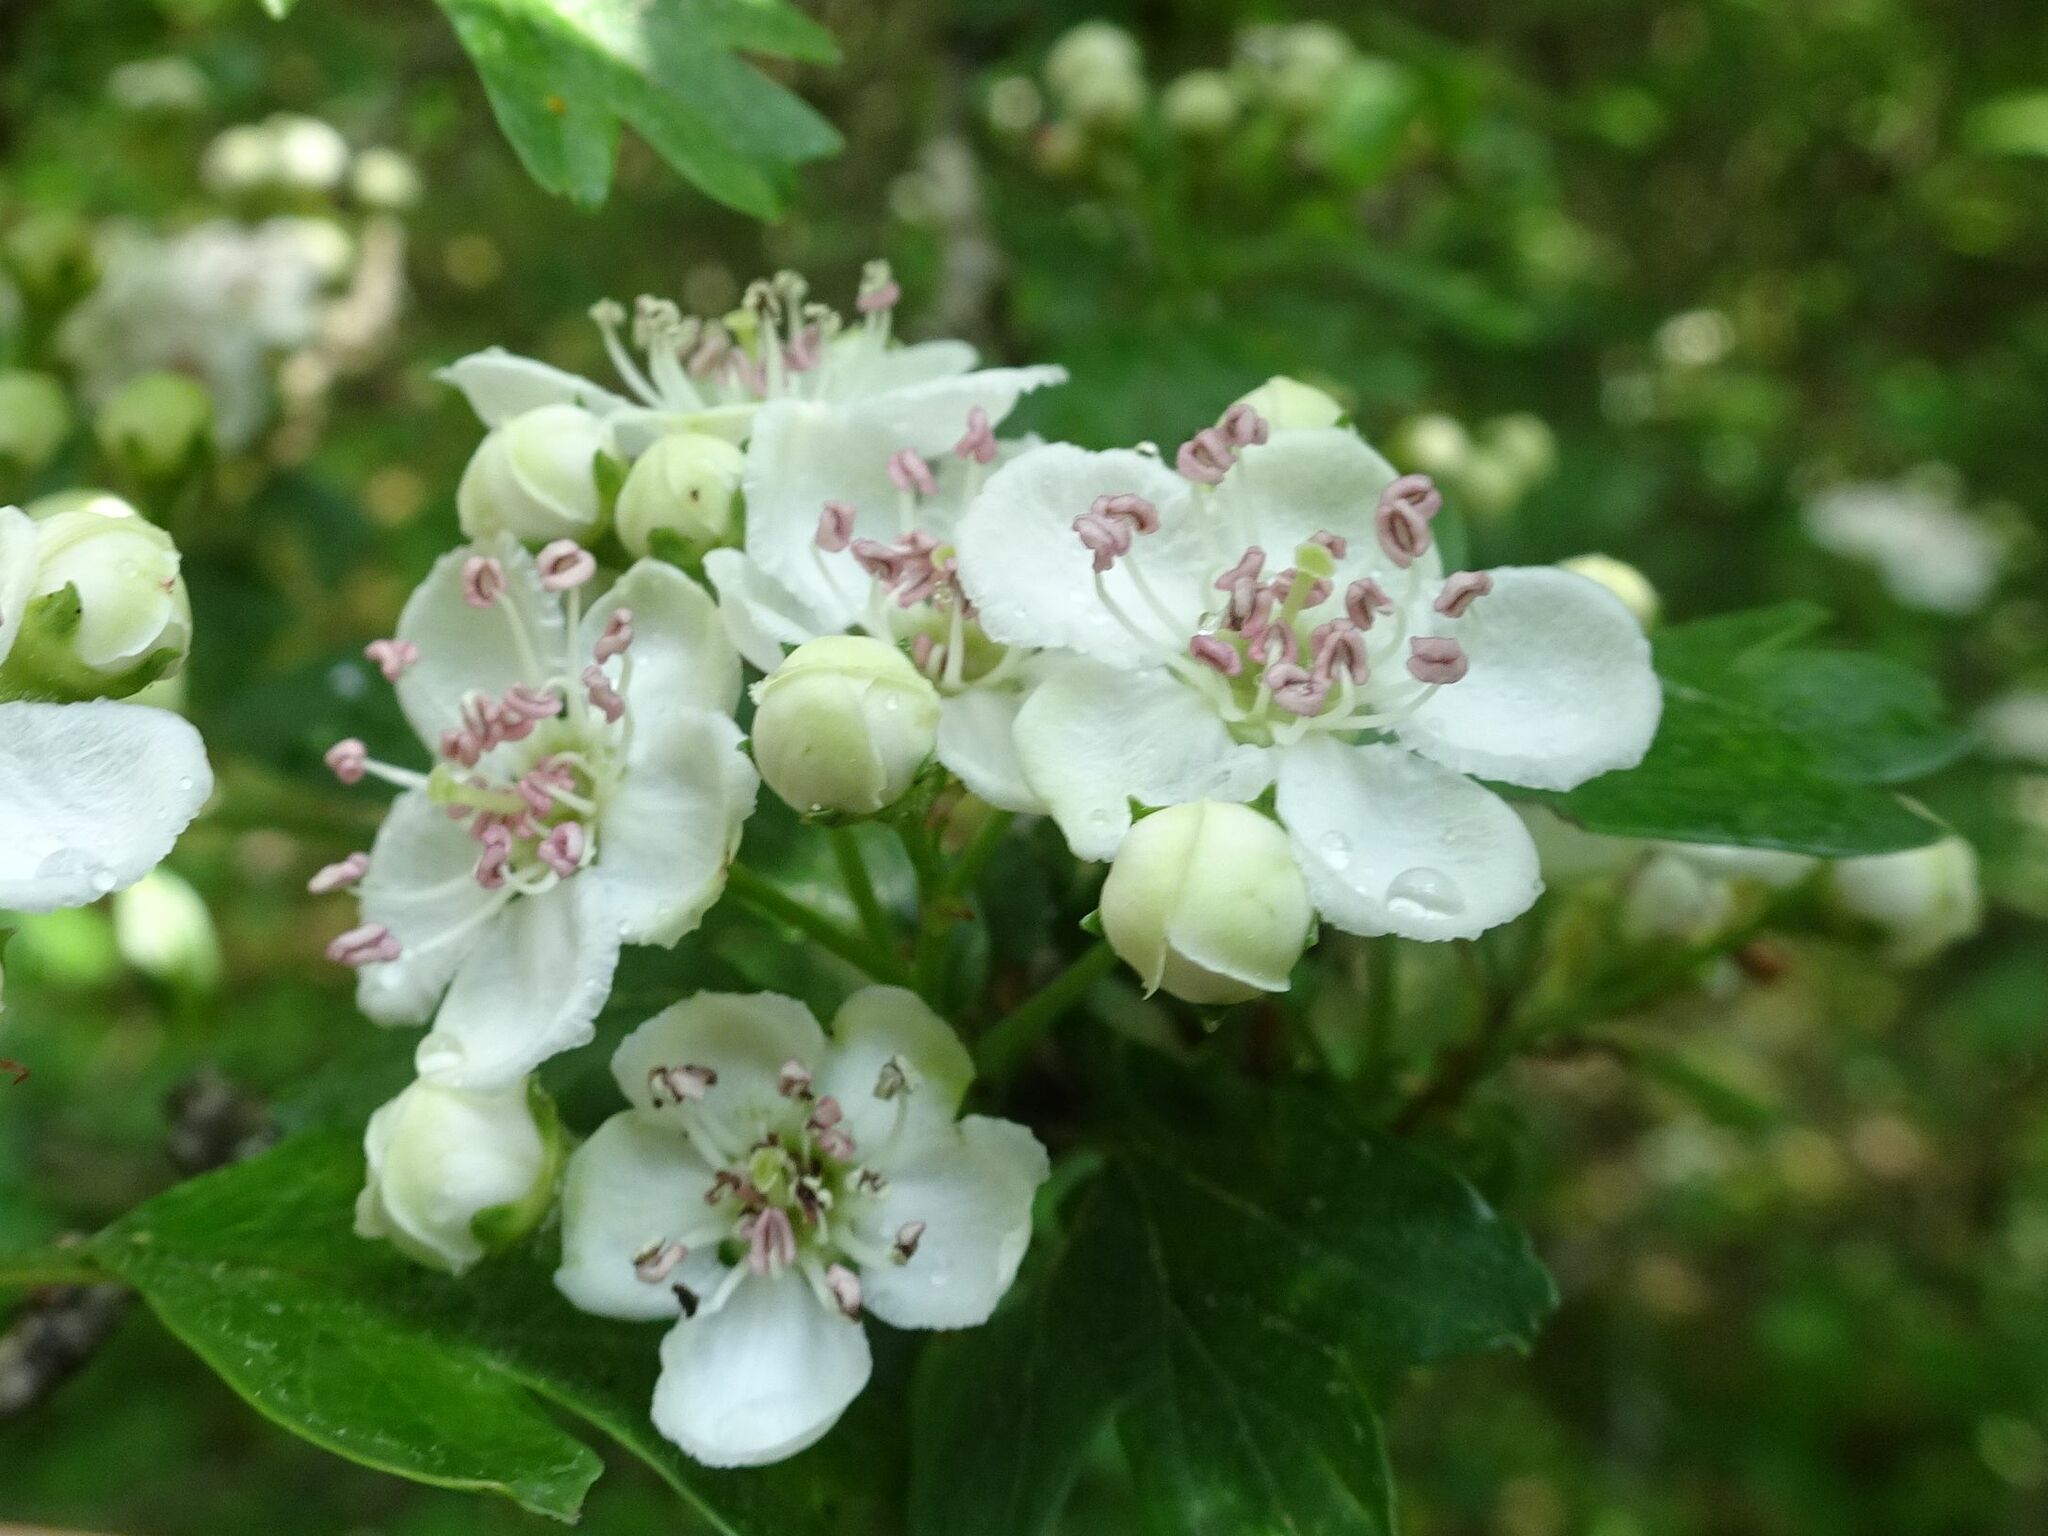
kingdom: Plantae
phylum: Tracheophyta
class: Magnoliopsida
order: Rosales
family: Rosaceae
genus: Crataegus
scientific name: Crataegus monogyna
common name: Hawthorn
